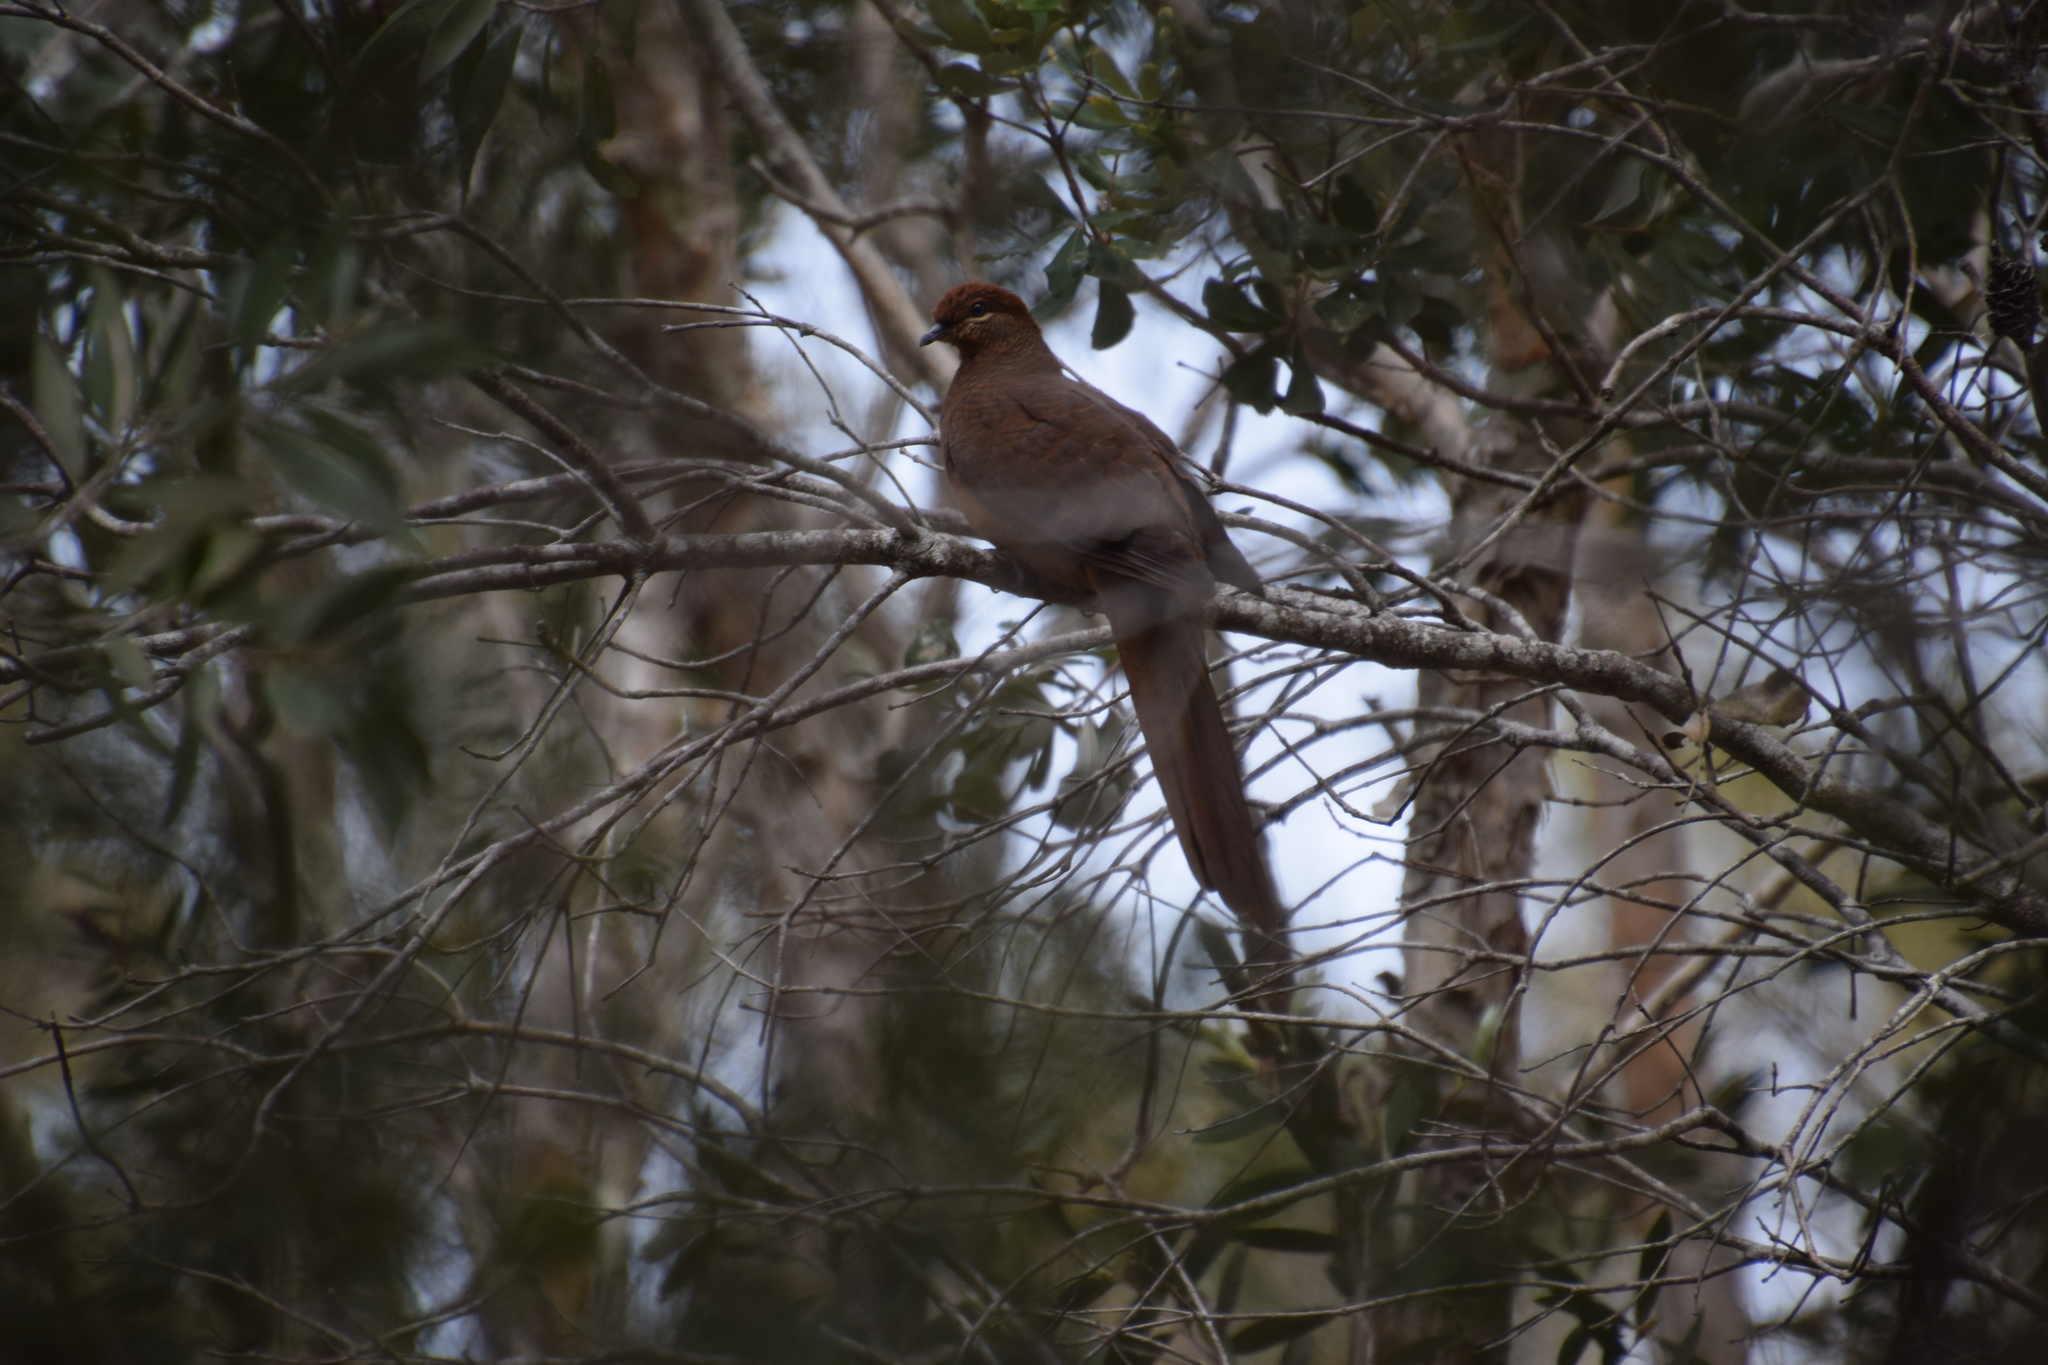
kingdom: Animalia
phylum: Chordata
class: Aves
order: Columbiformes
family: Columbidae
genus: Macropygia
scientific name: Macropygia phasianella
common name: Brown cuckoo-dove
